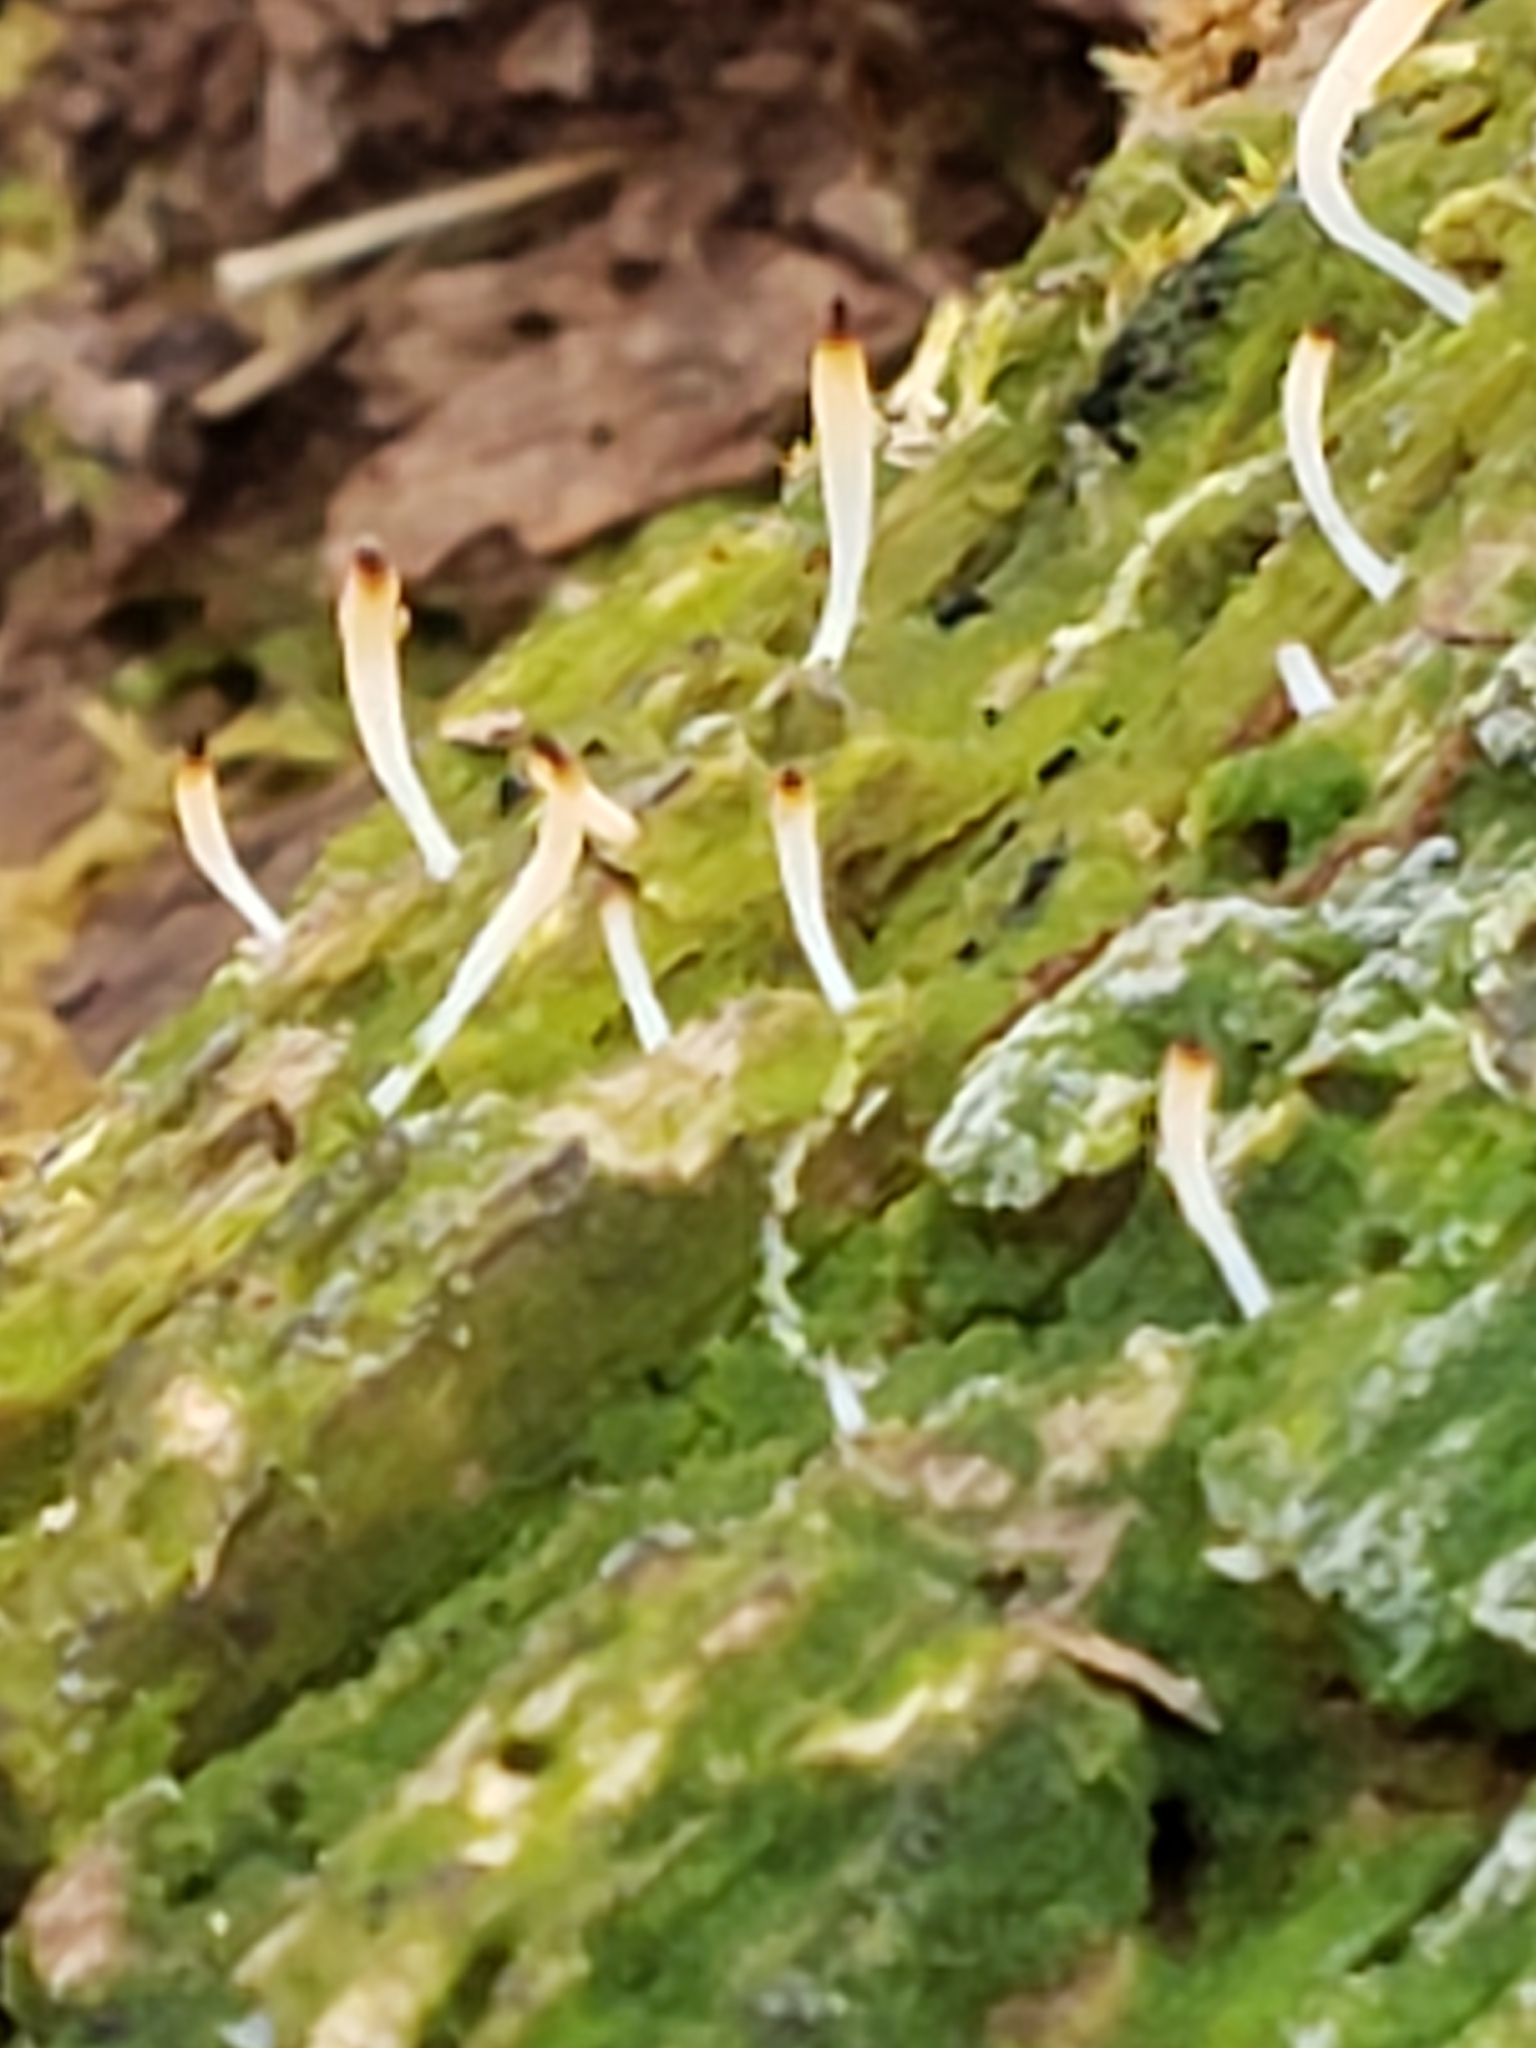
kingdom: Fungi
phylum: Basidiomycota
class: Agaricomycetes
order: Cantharellales
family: Hydnaceae
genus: Multiclavula
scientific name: Multiclavula mucida
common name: White green-algae coral
